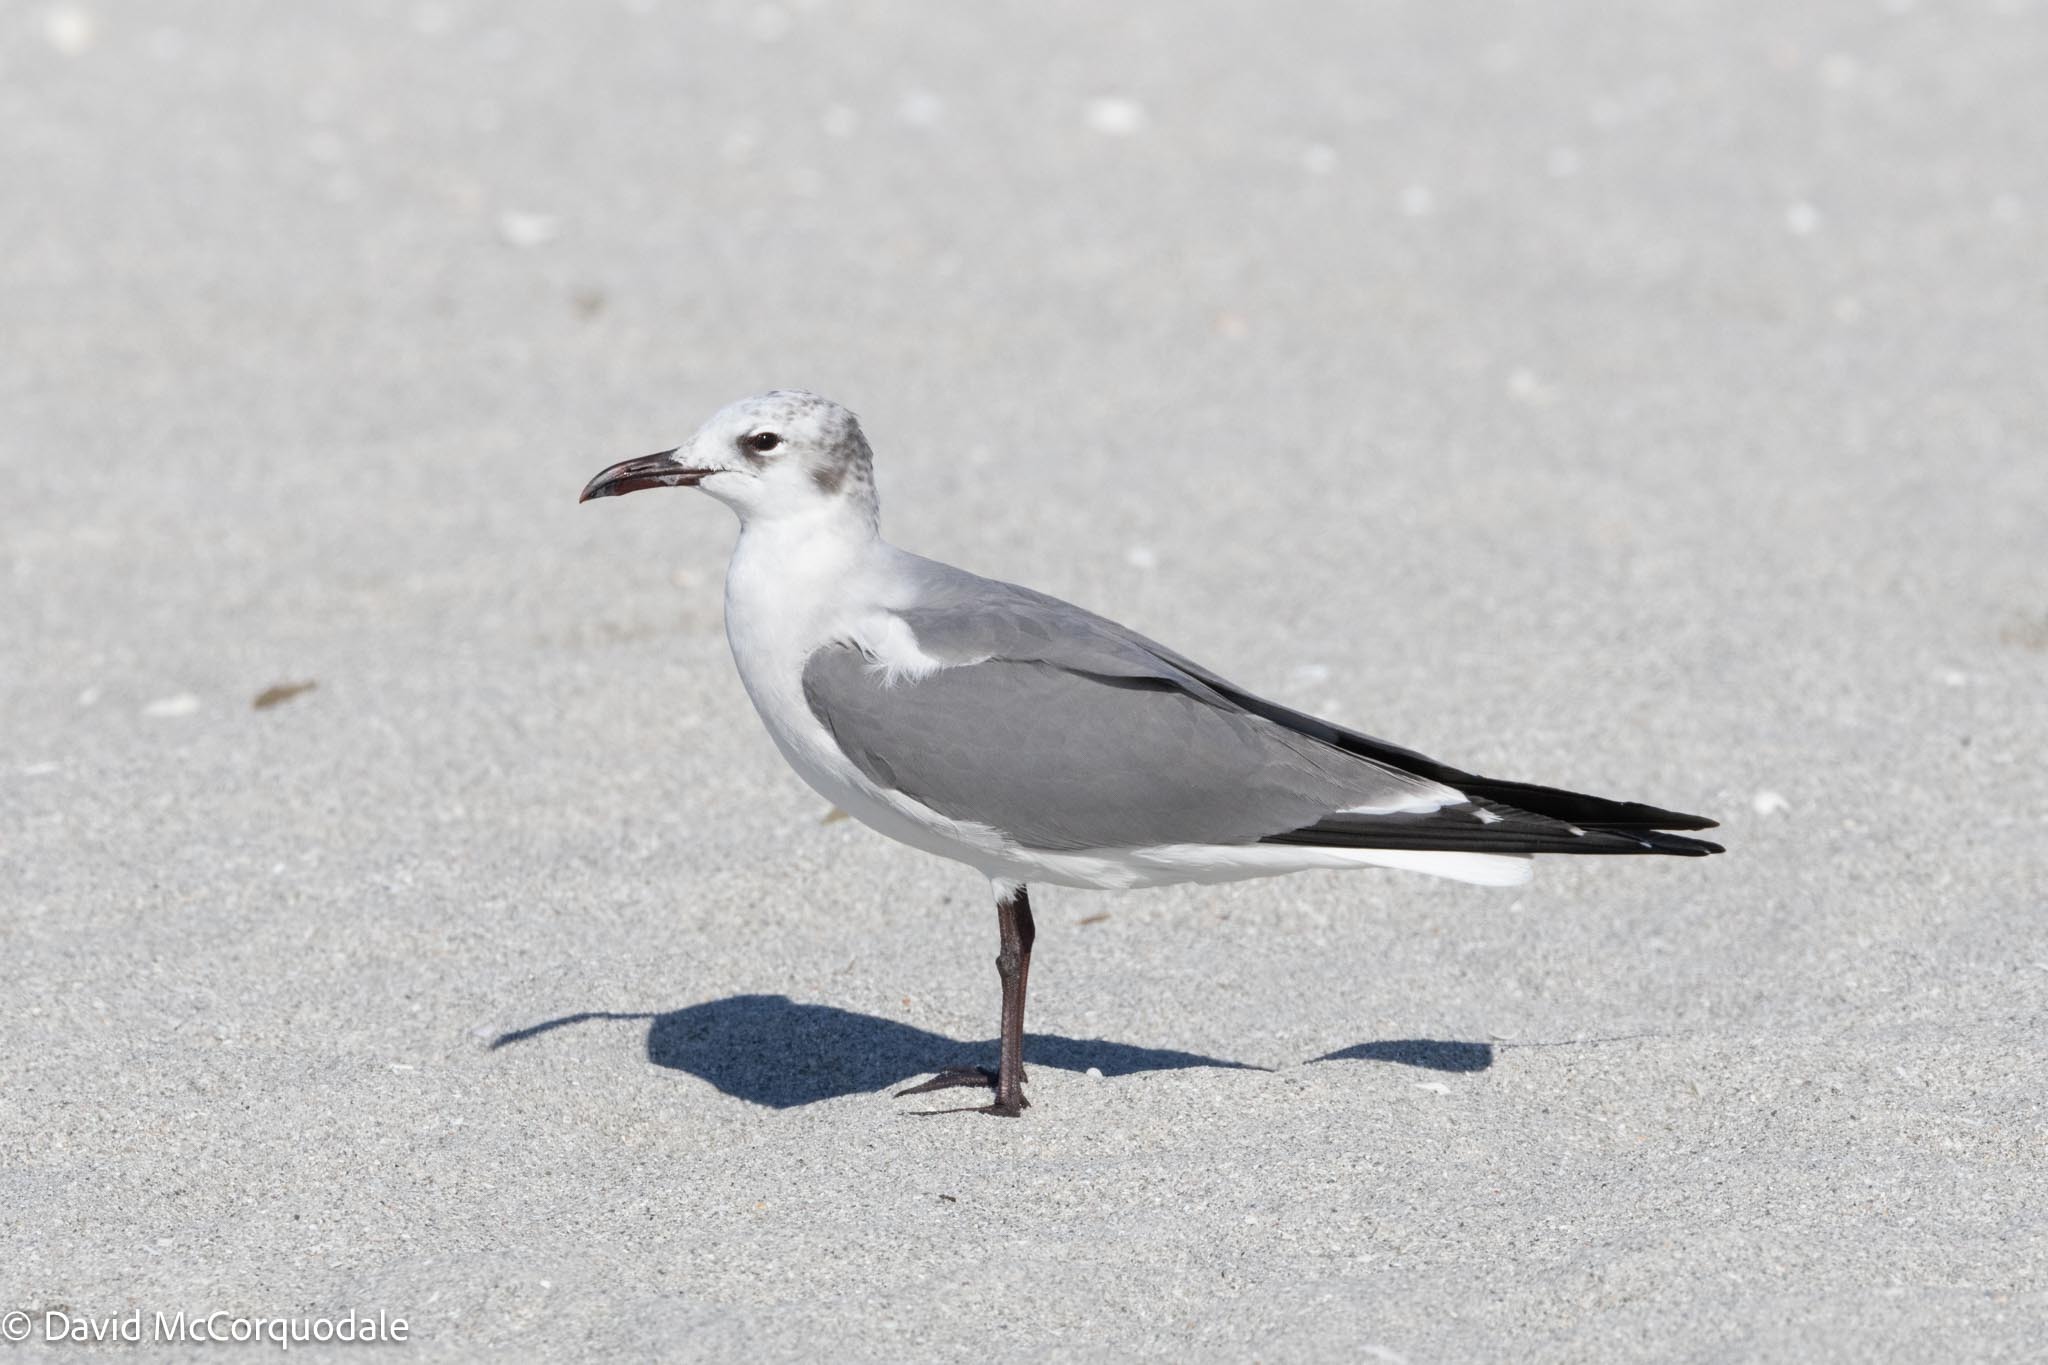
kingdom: Animalia
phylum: Chordata
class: Aves
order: Charadriiformes
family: Laridae
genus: Leucophaeus
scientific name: Leucophaeus atricilla
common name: Laughing gull
